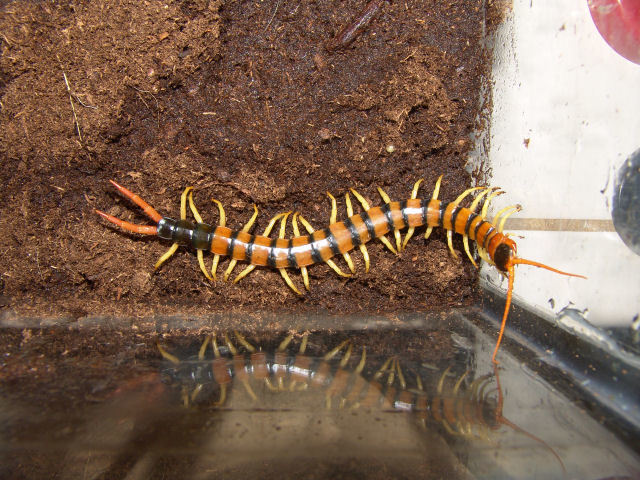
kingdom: Animalia
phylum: Arthropoda
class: Chilopoda
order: Scolopendromorpha
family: Scolopendridae
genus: Scolopendra
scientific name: Scolopendra heros
